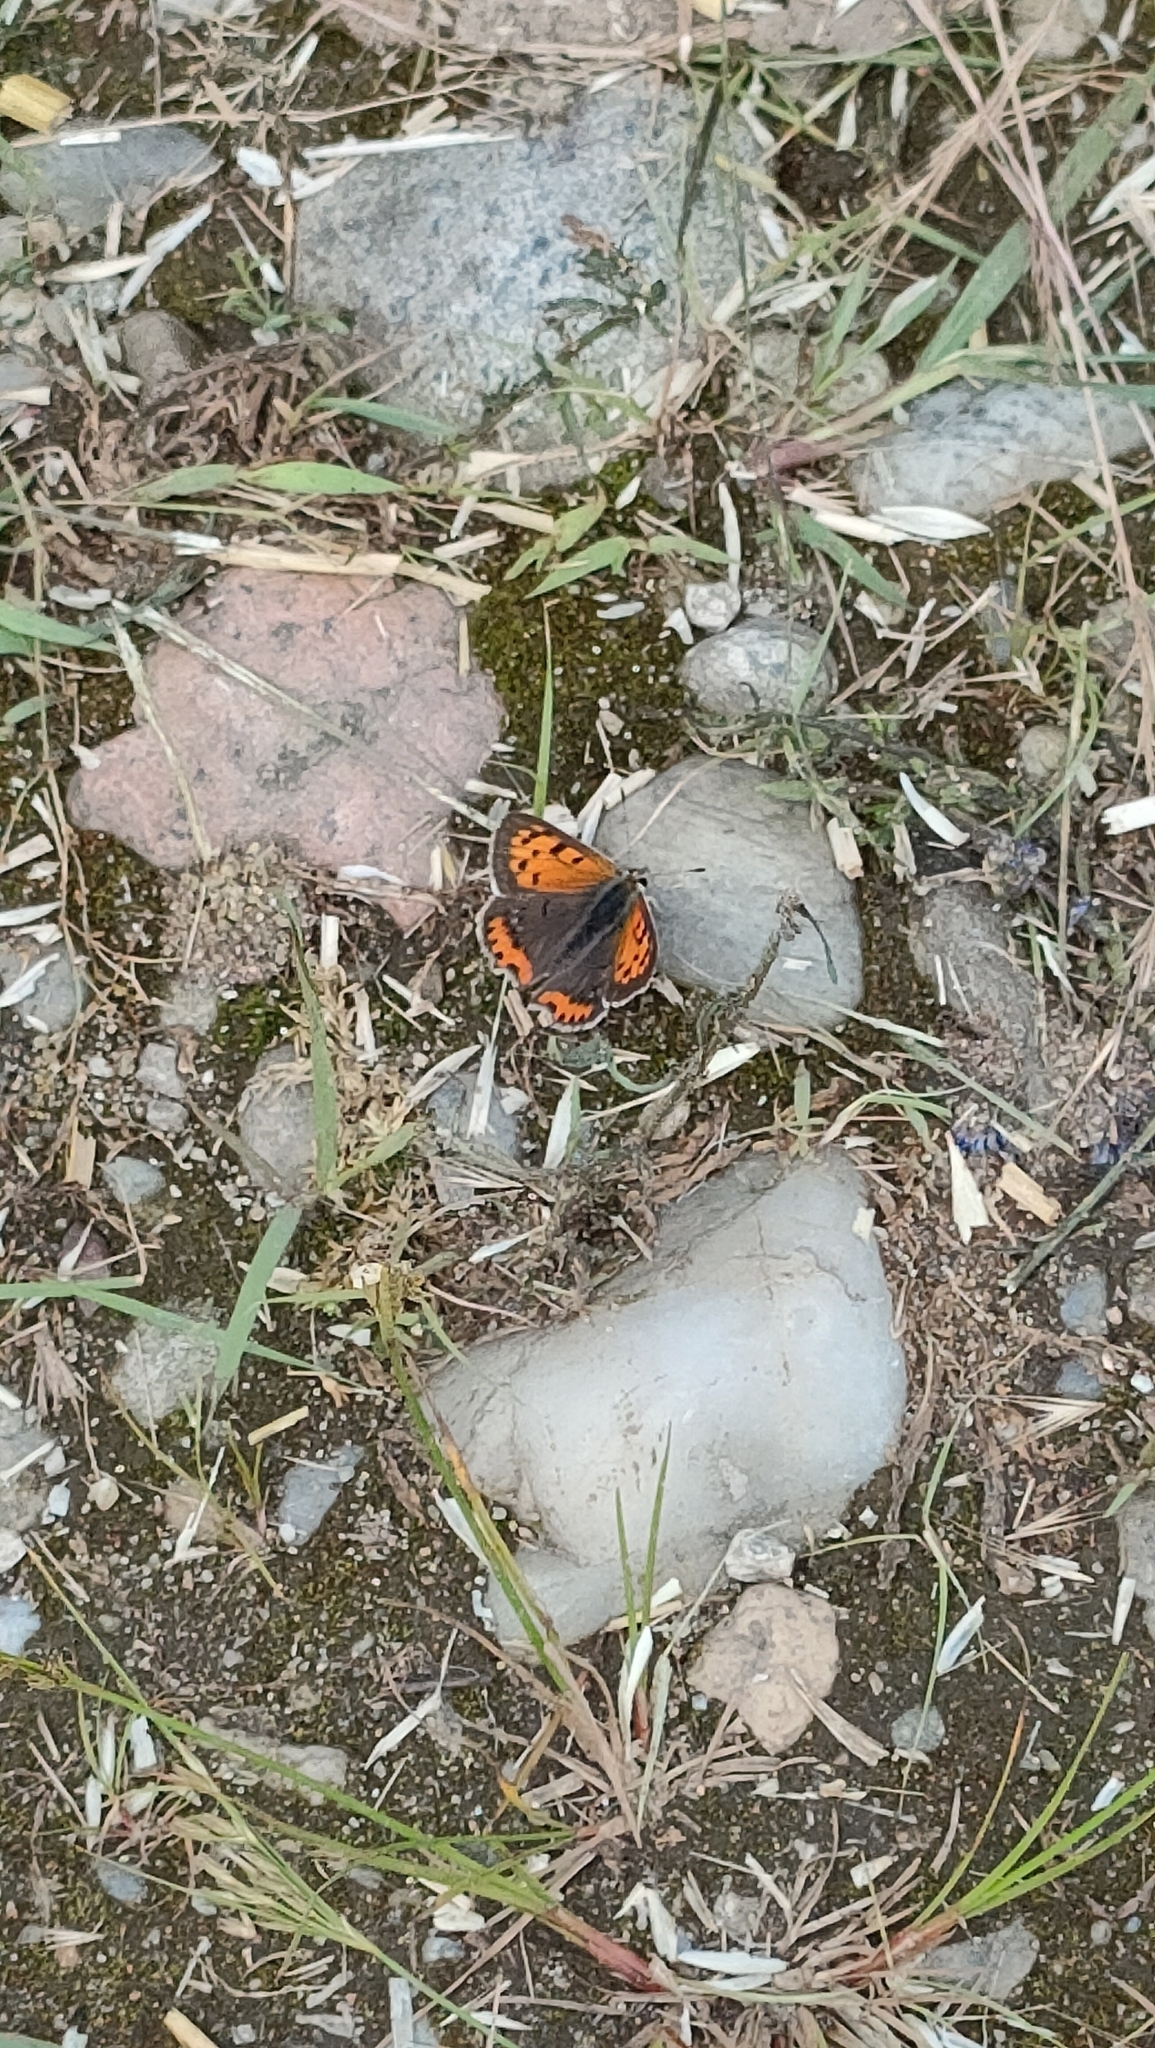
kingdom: Animalia
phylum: Arthropoda
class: Insecta
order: Lepidoptera
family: Lycaenidae
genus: Lycaena
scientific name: Lycaena phlaeas
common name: Small copper
